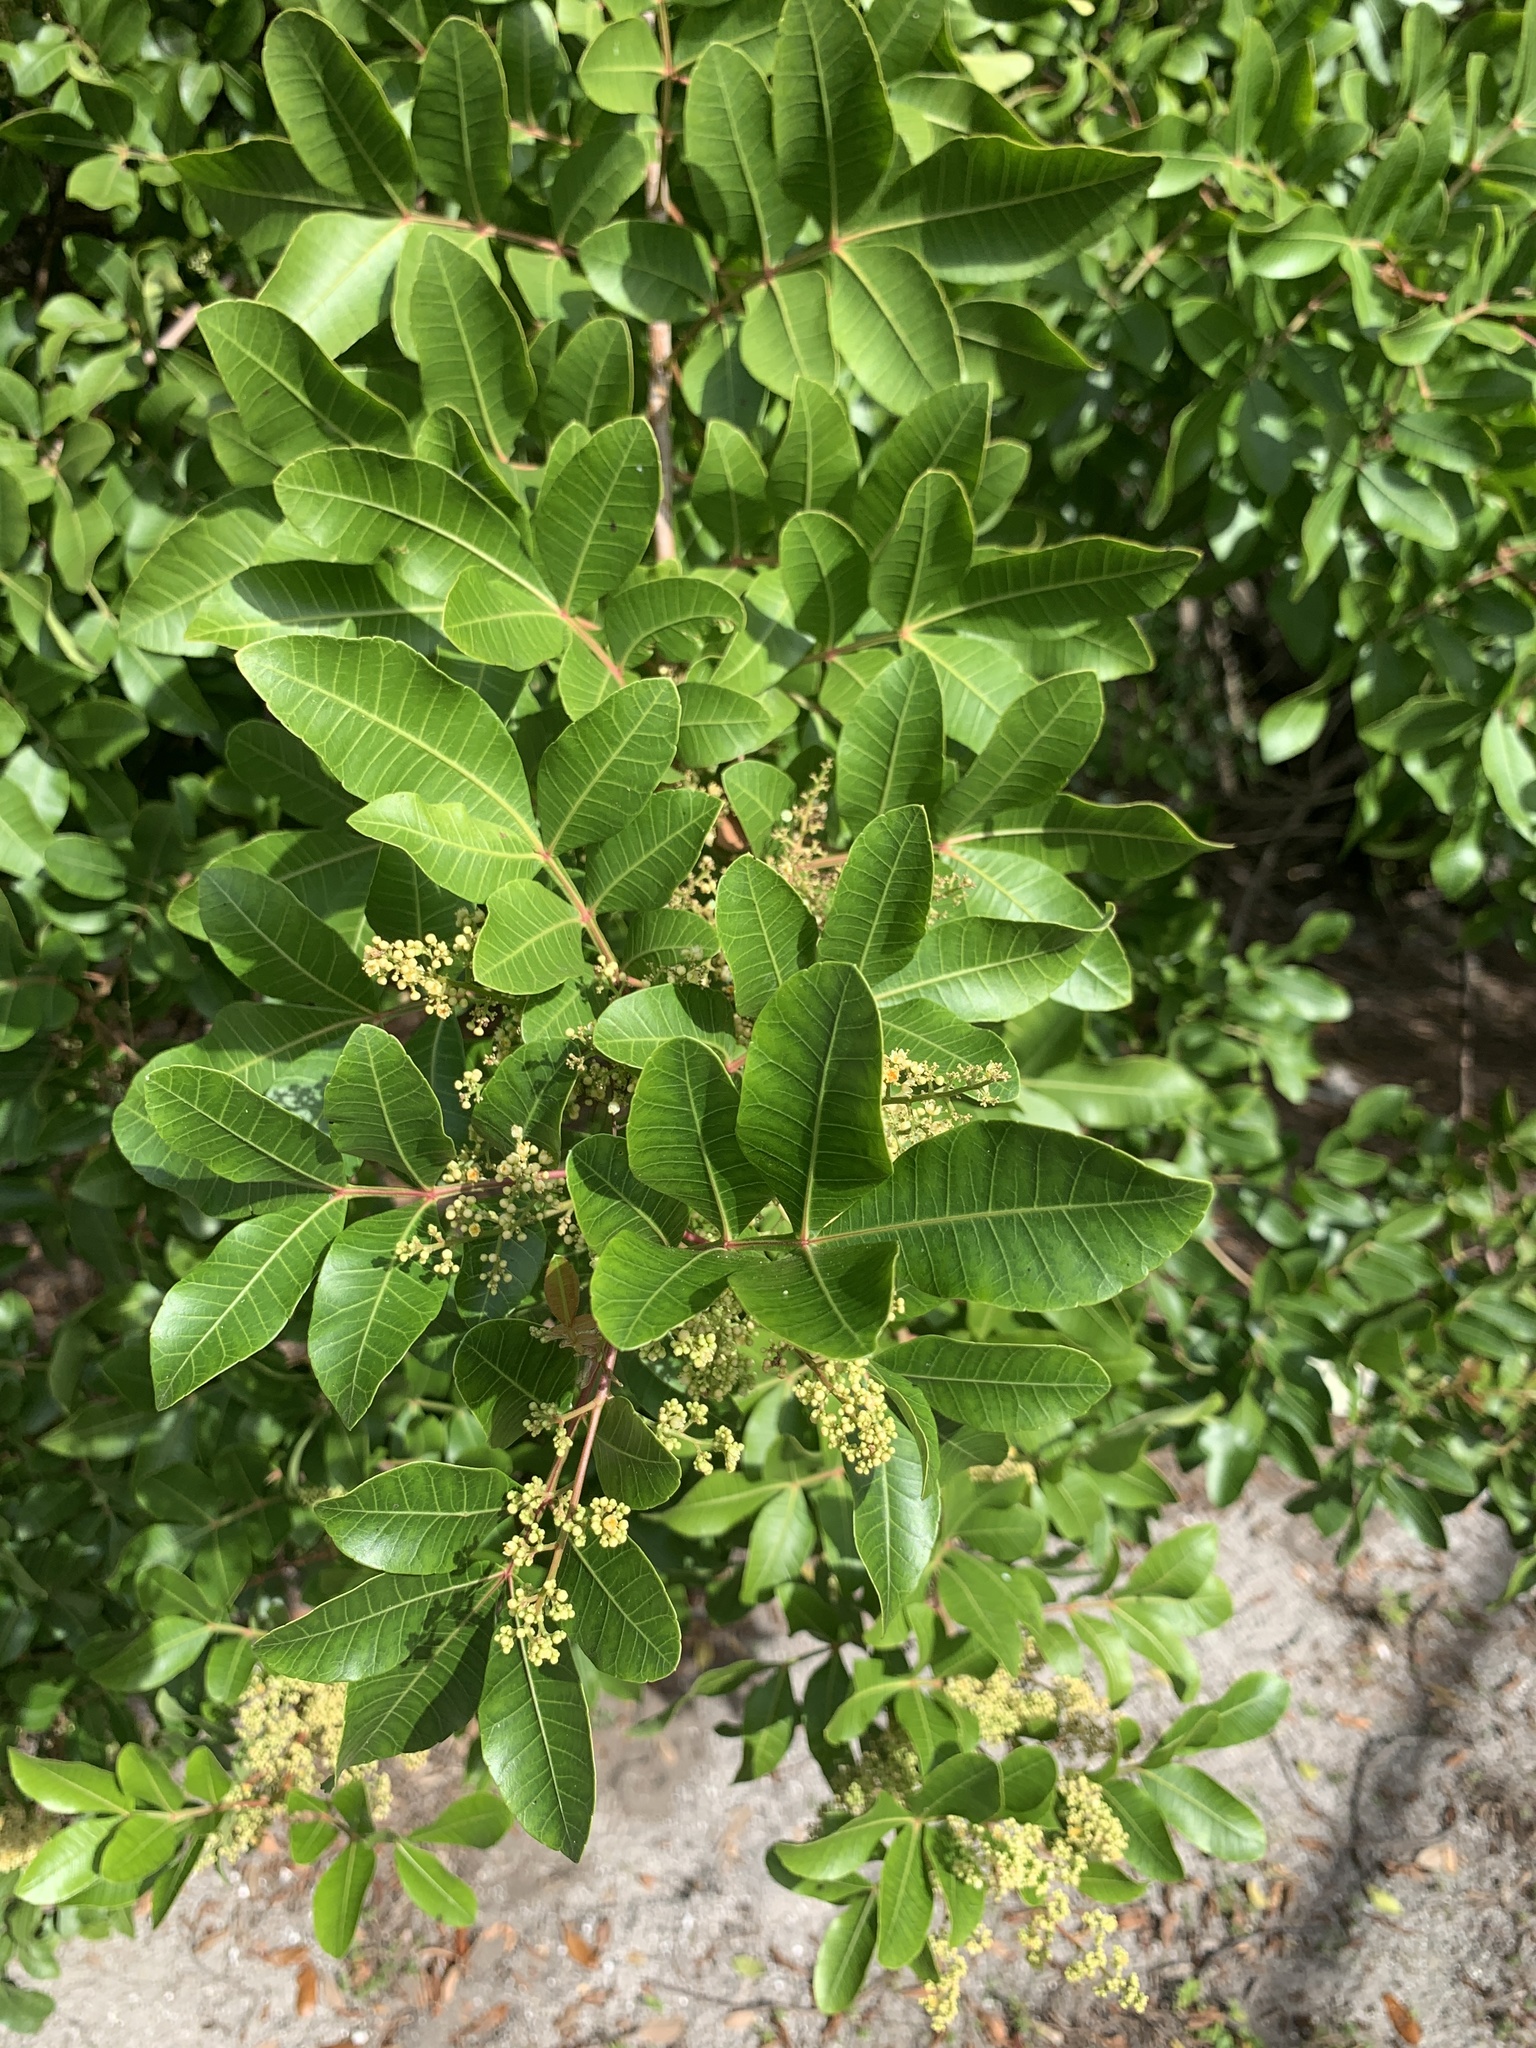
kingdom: Plantae
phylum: Tracheophyta
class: Magnoliopsida
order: Sapindales
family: Anacardiaceae
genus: Schinus
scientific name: Schinus terebinthifolia
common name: Brazilian peppertree
